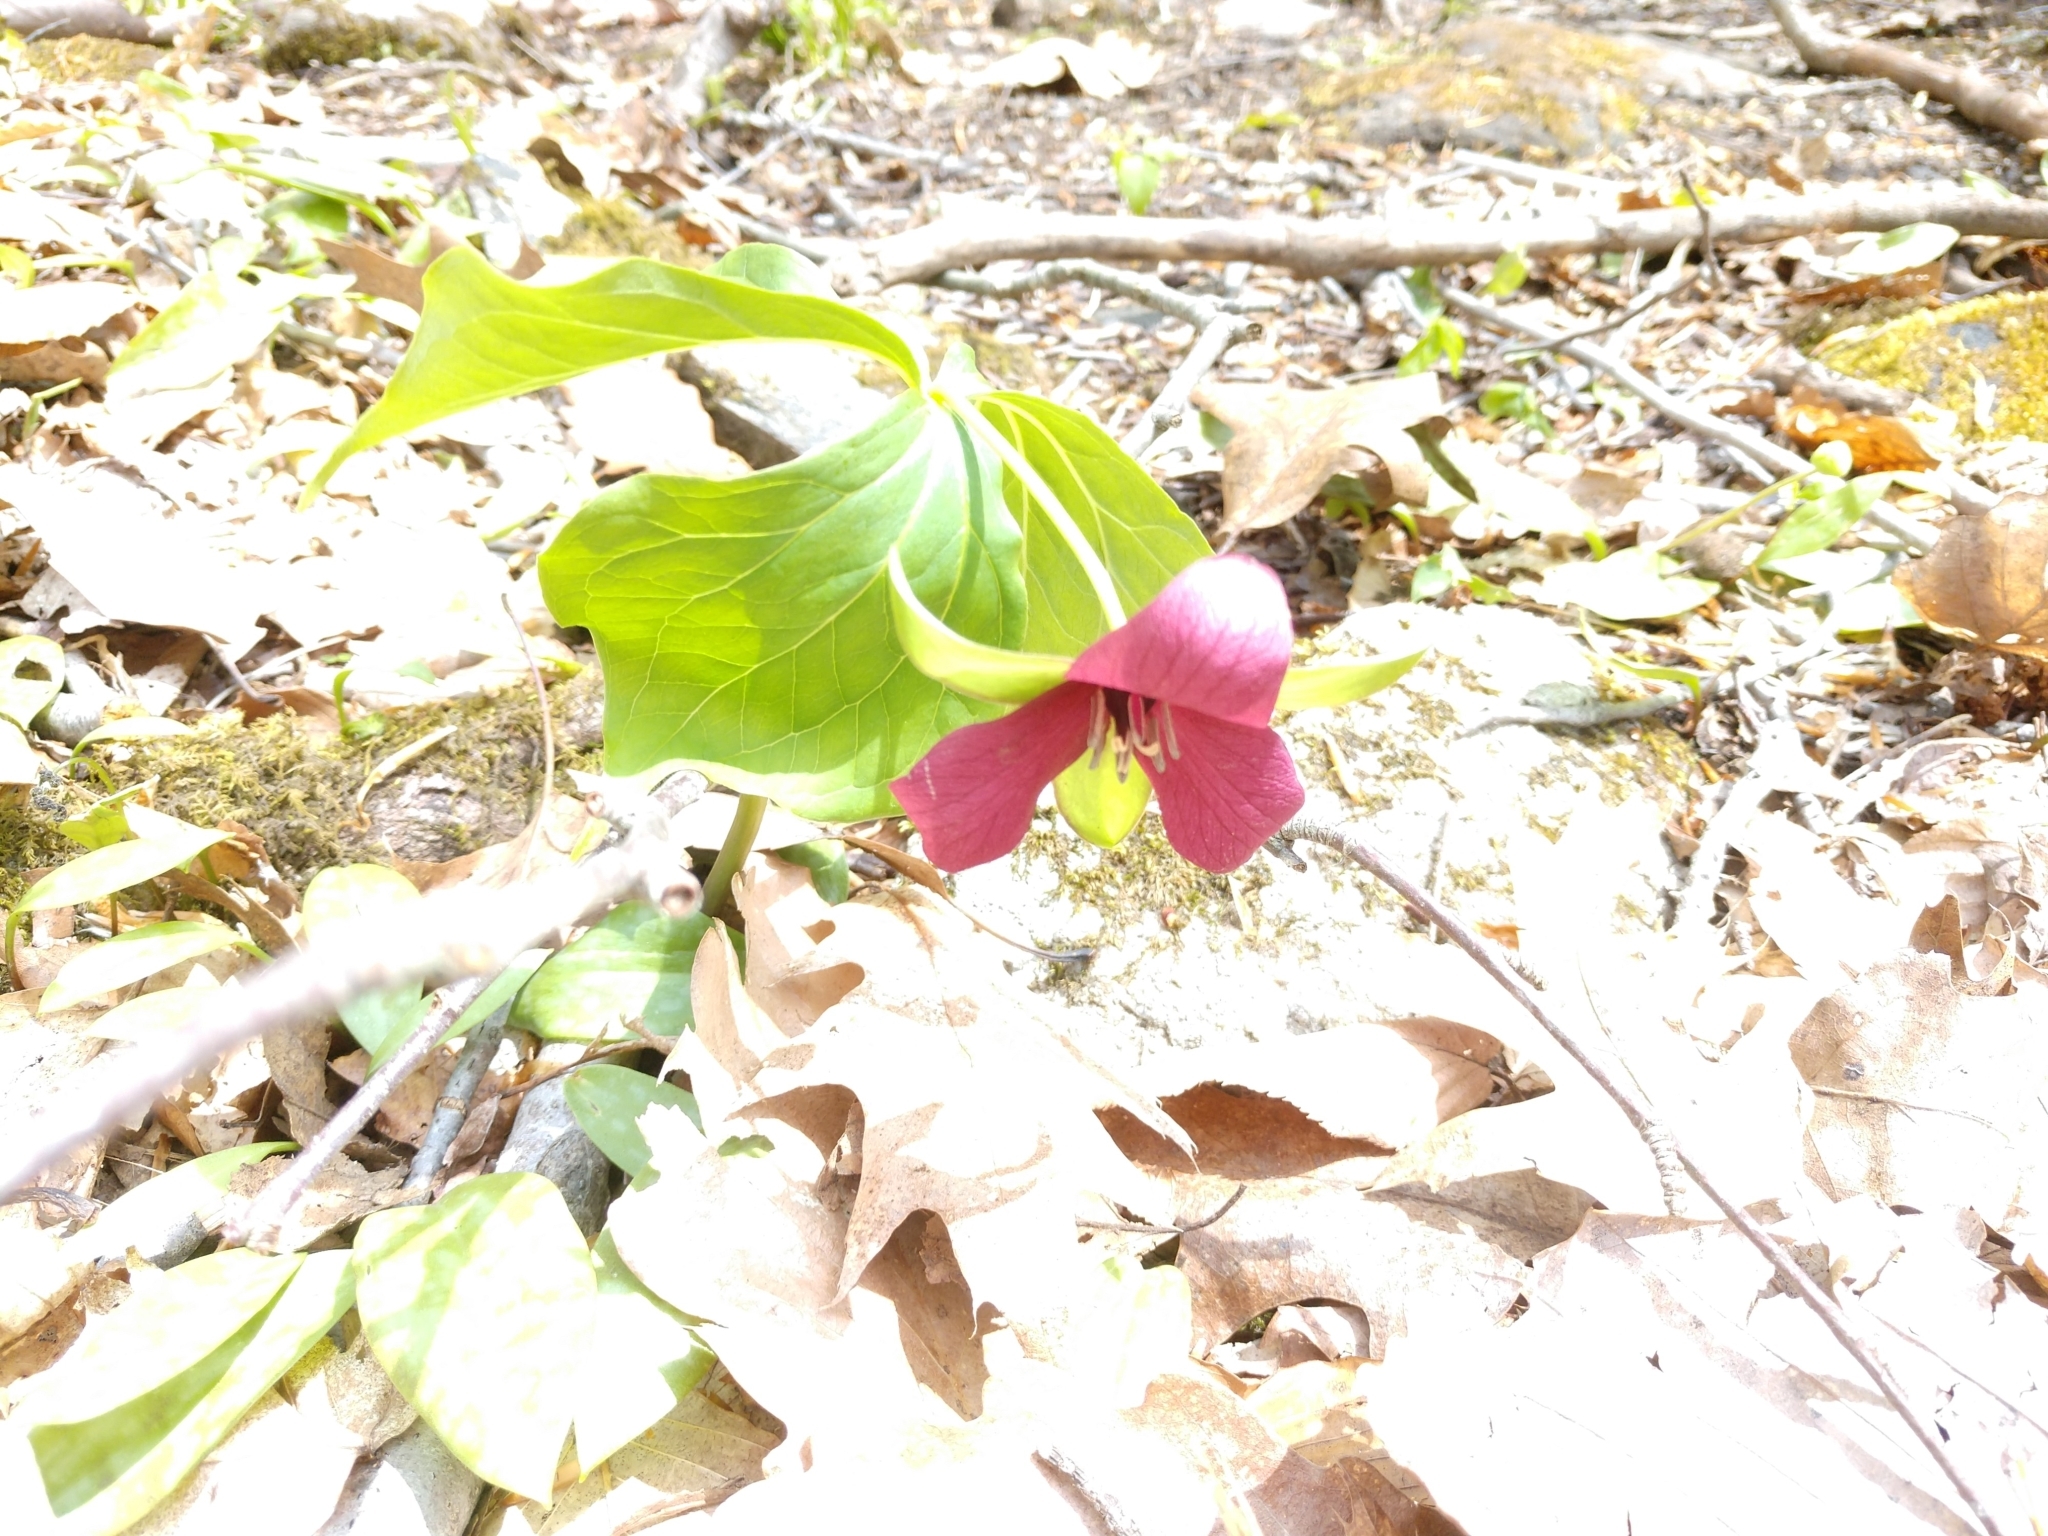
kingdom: Plantae
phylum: Tracheophyta
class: Liliopsida
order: Liliales
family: Melanthiaceae
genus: Trillium
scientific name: Trillium erectum
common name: Purple trillium
